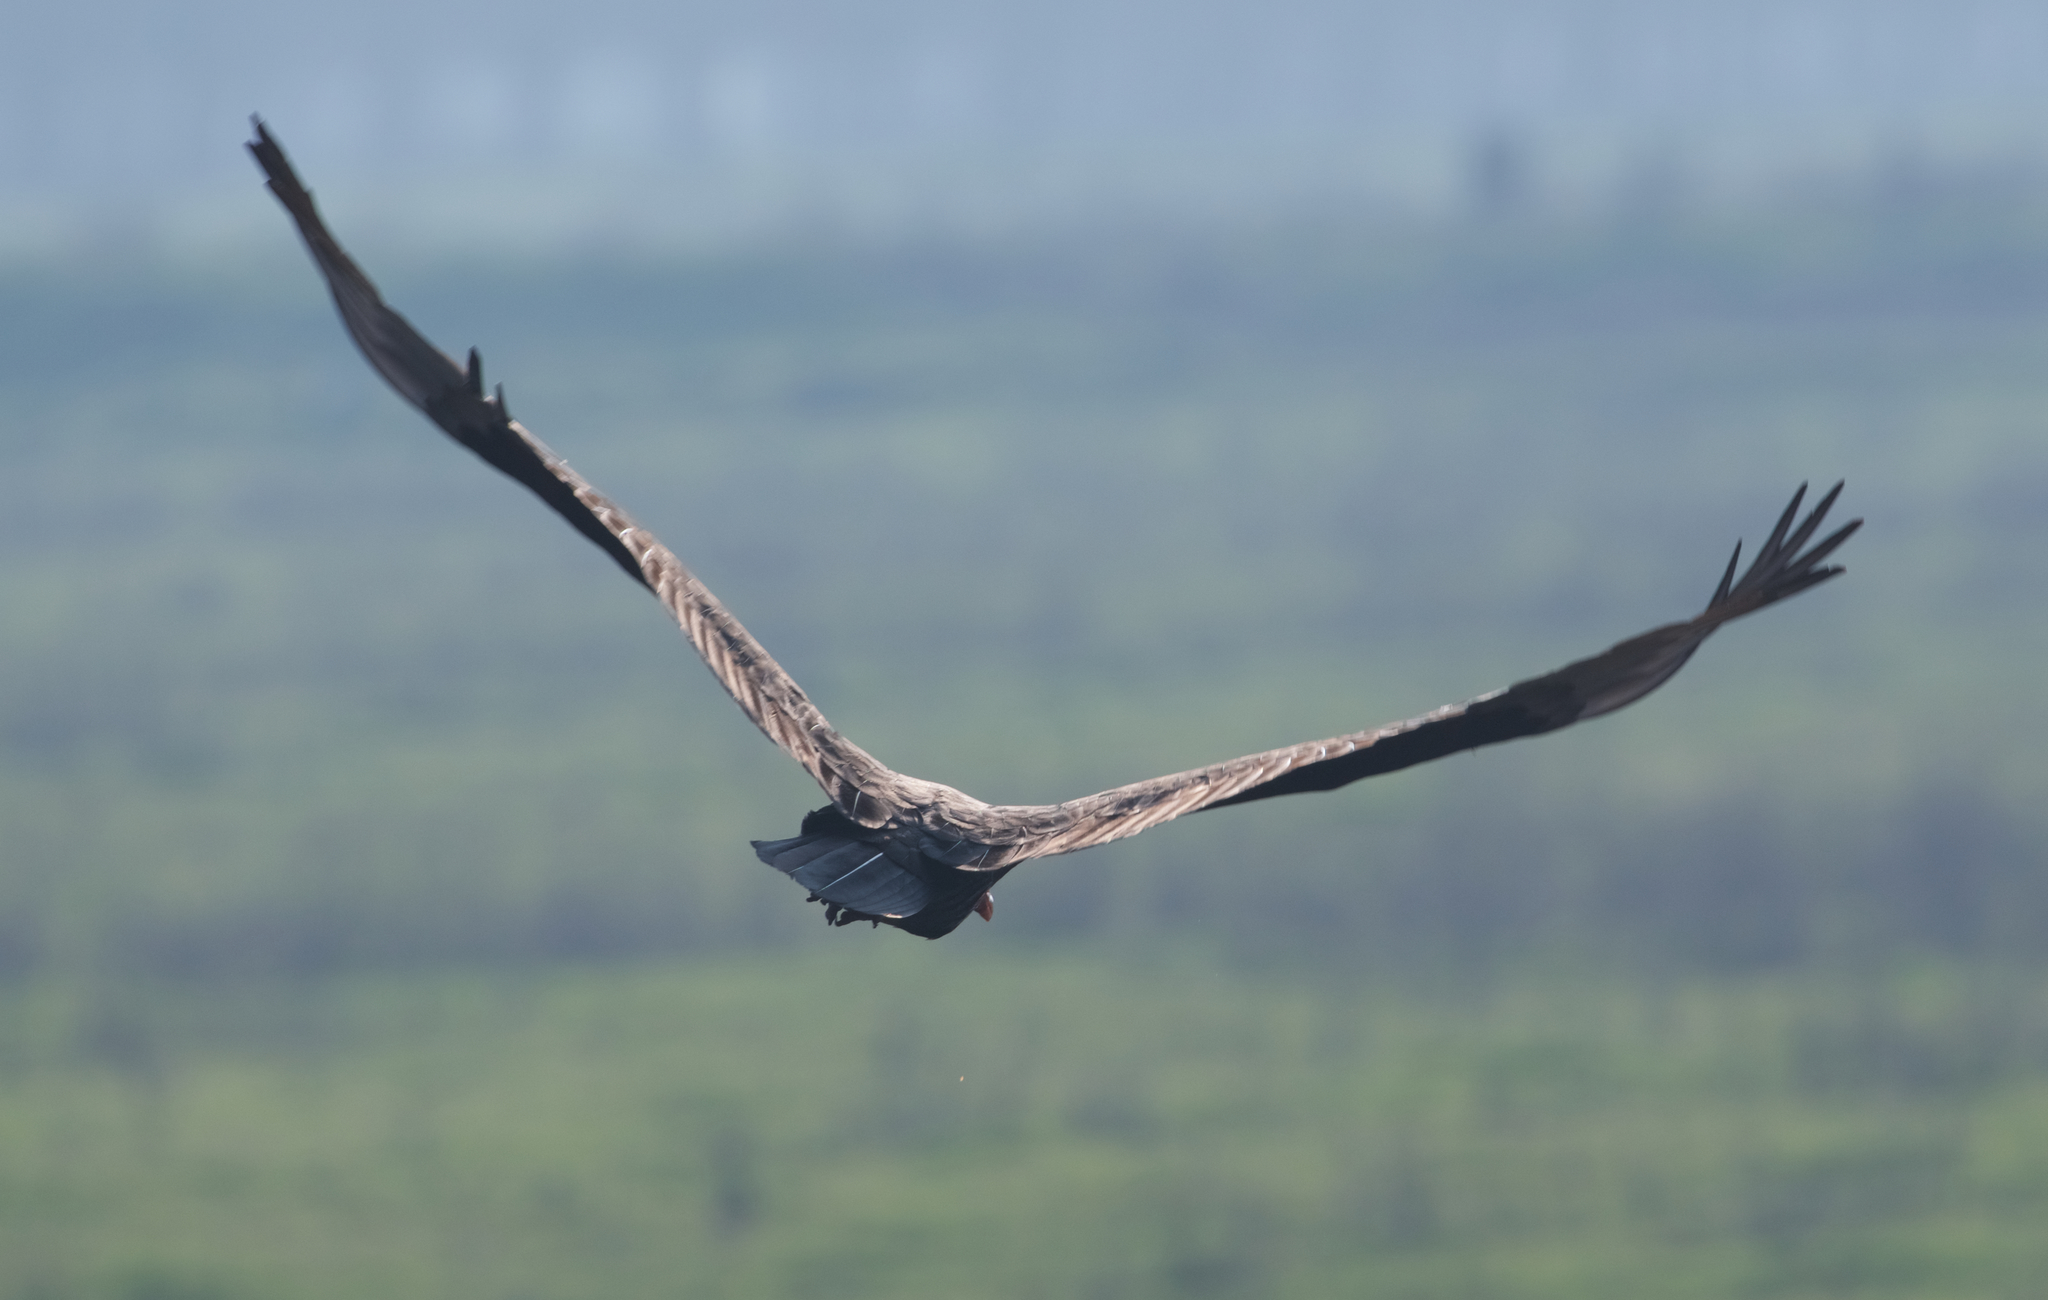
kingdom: Animalia
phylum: Chordata
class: Aves
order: Accipitriformes
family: Cathartidae
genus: Cathartes
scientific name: Cathartes aura
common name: Turkey vulture
